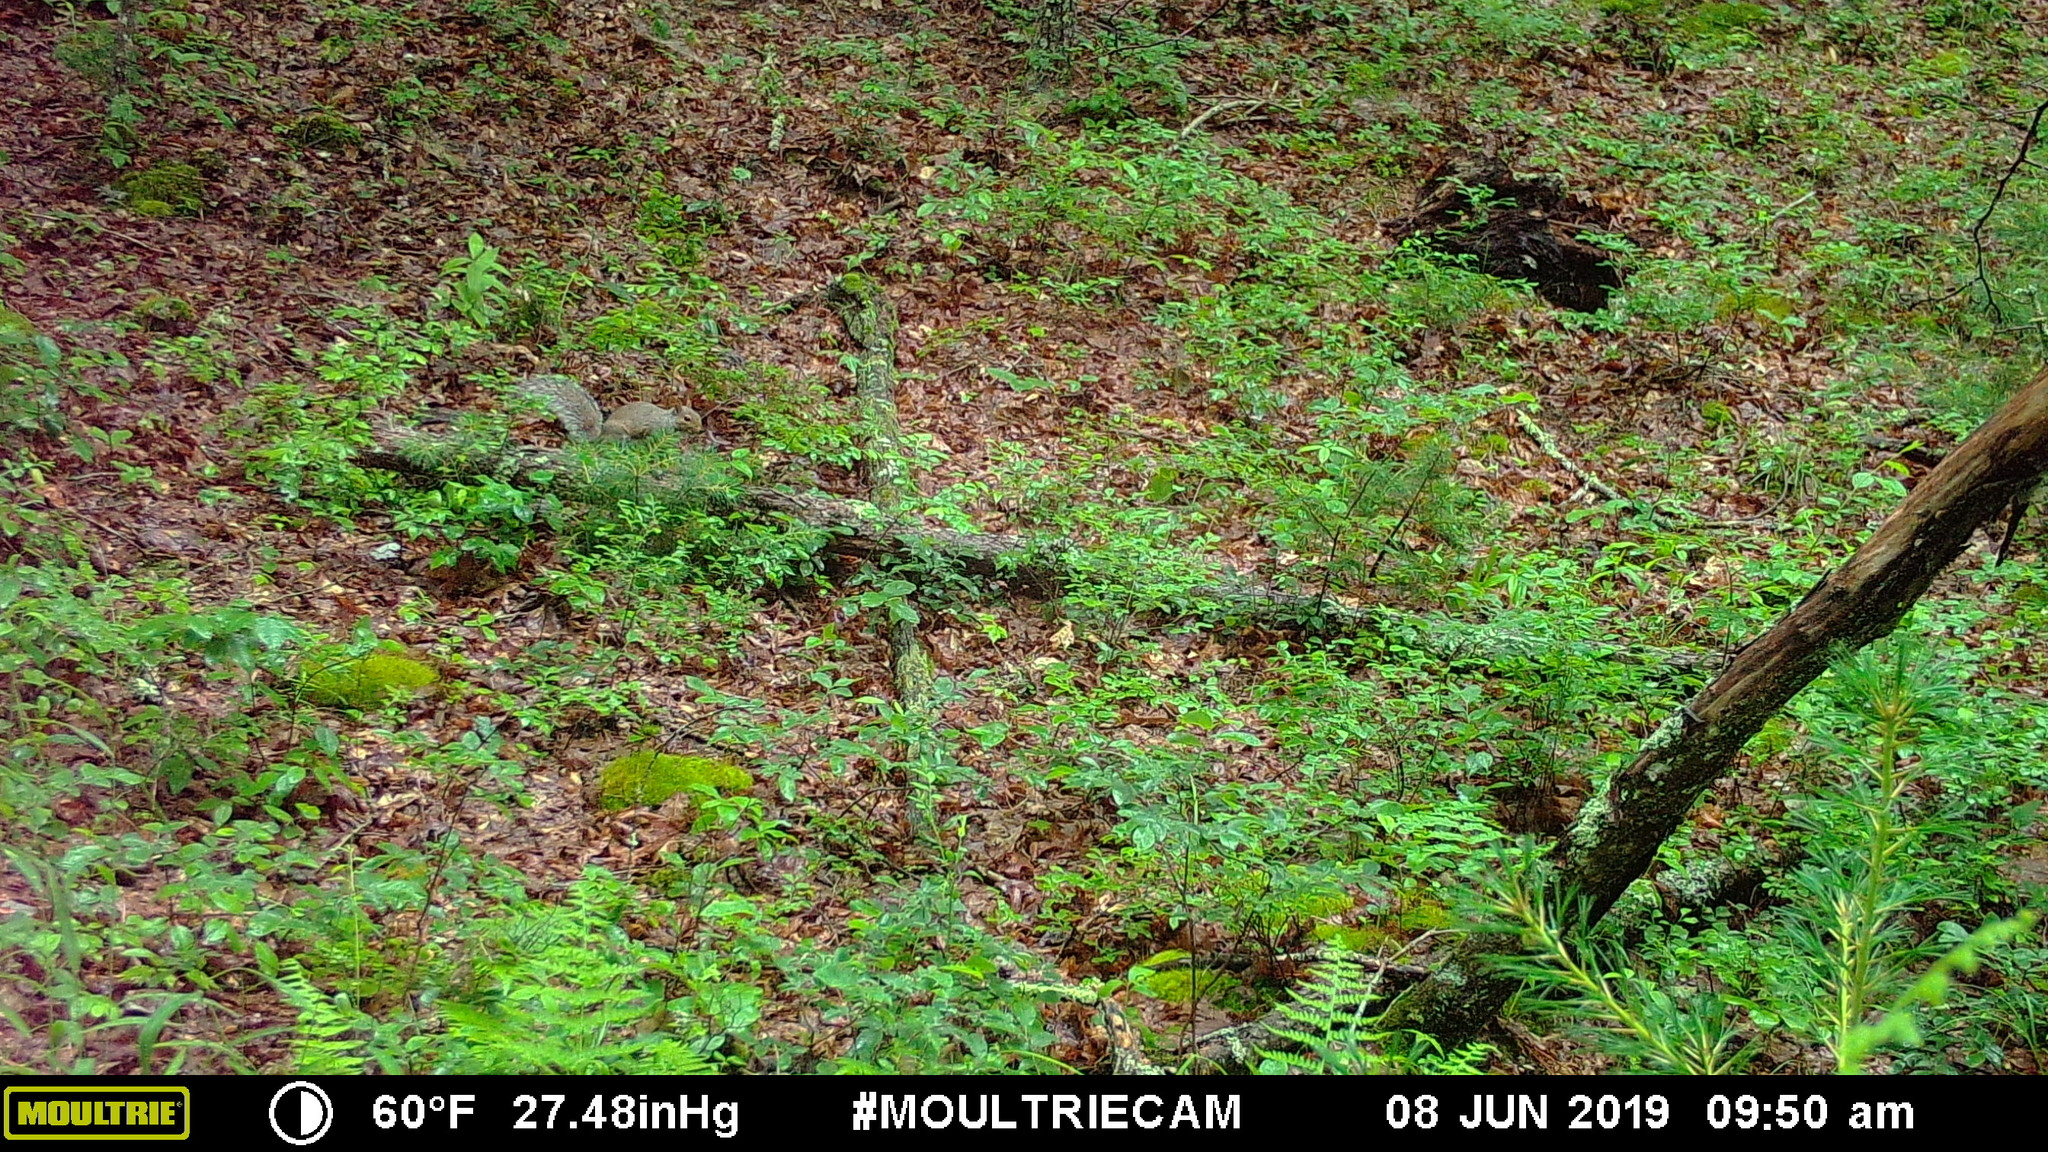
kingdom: Animalia
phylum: Chordata
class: Mammalia
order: Rodentia
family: Sciuridae
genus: Sciurus
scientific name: Sciurus carolinensis
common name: Eastern gray squirrel
